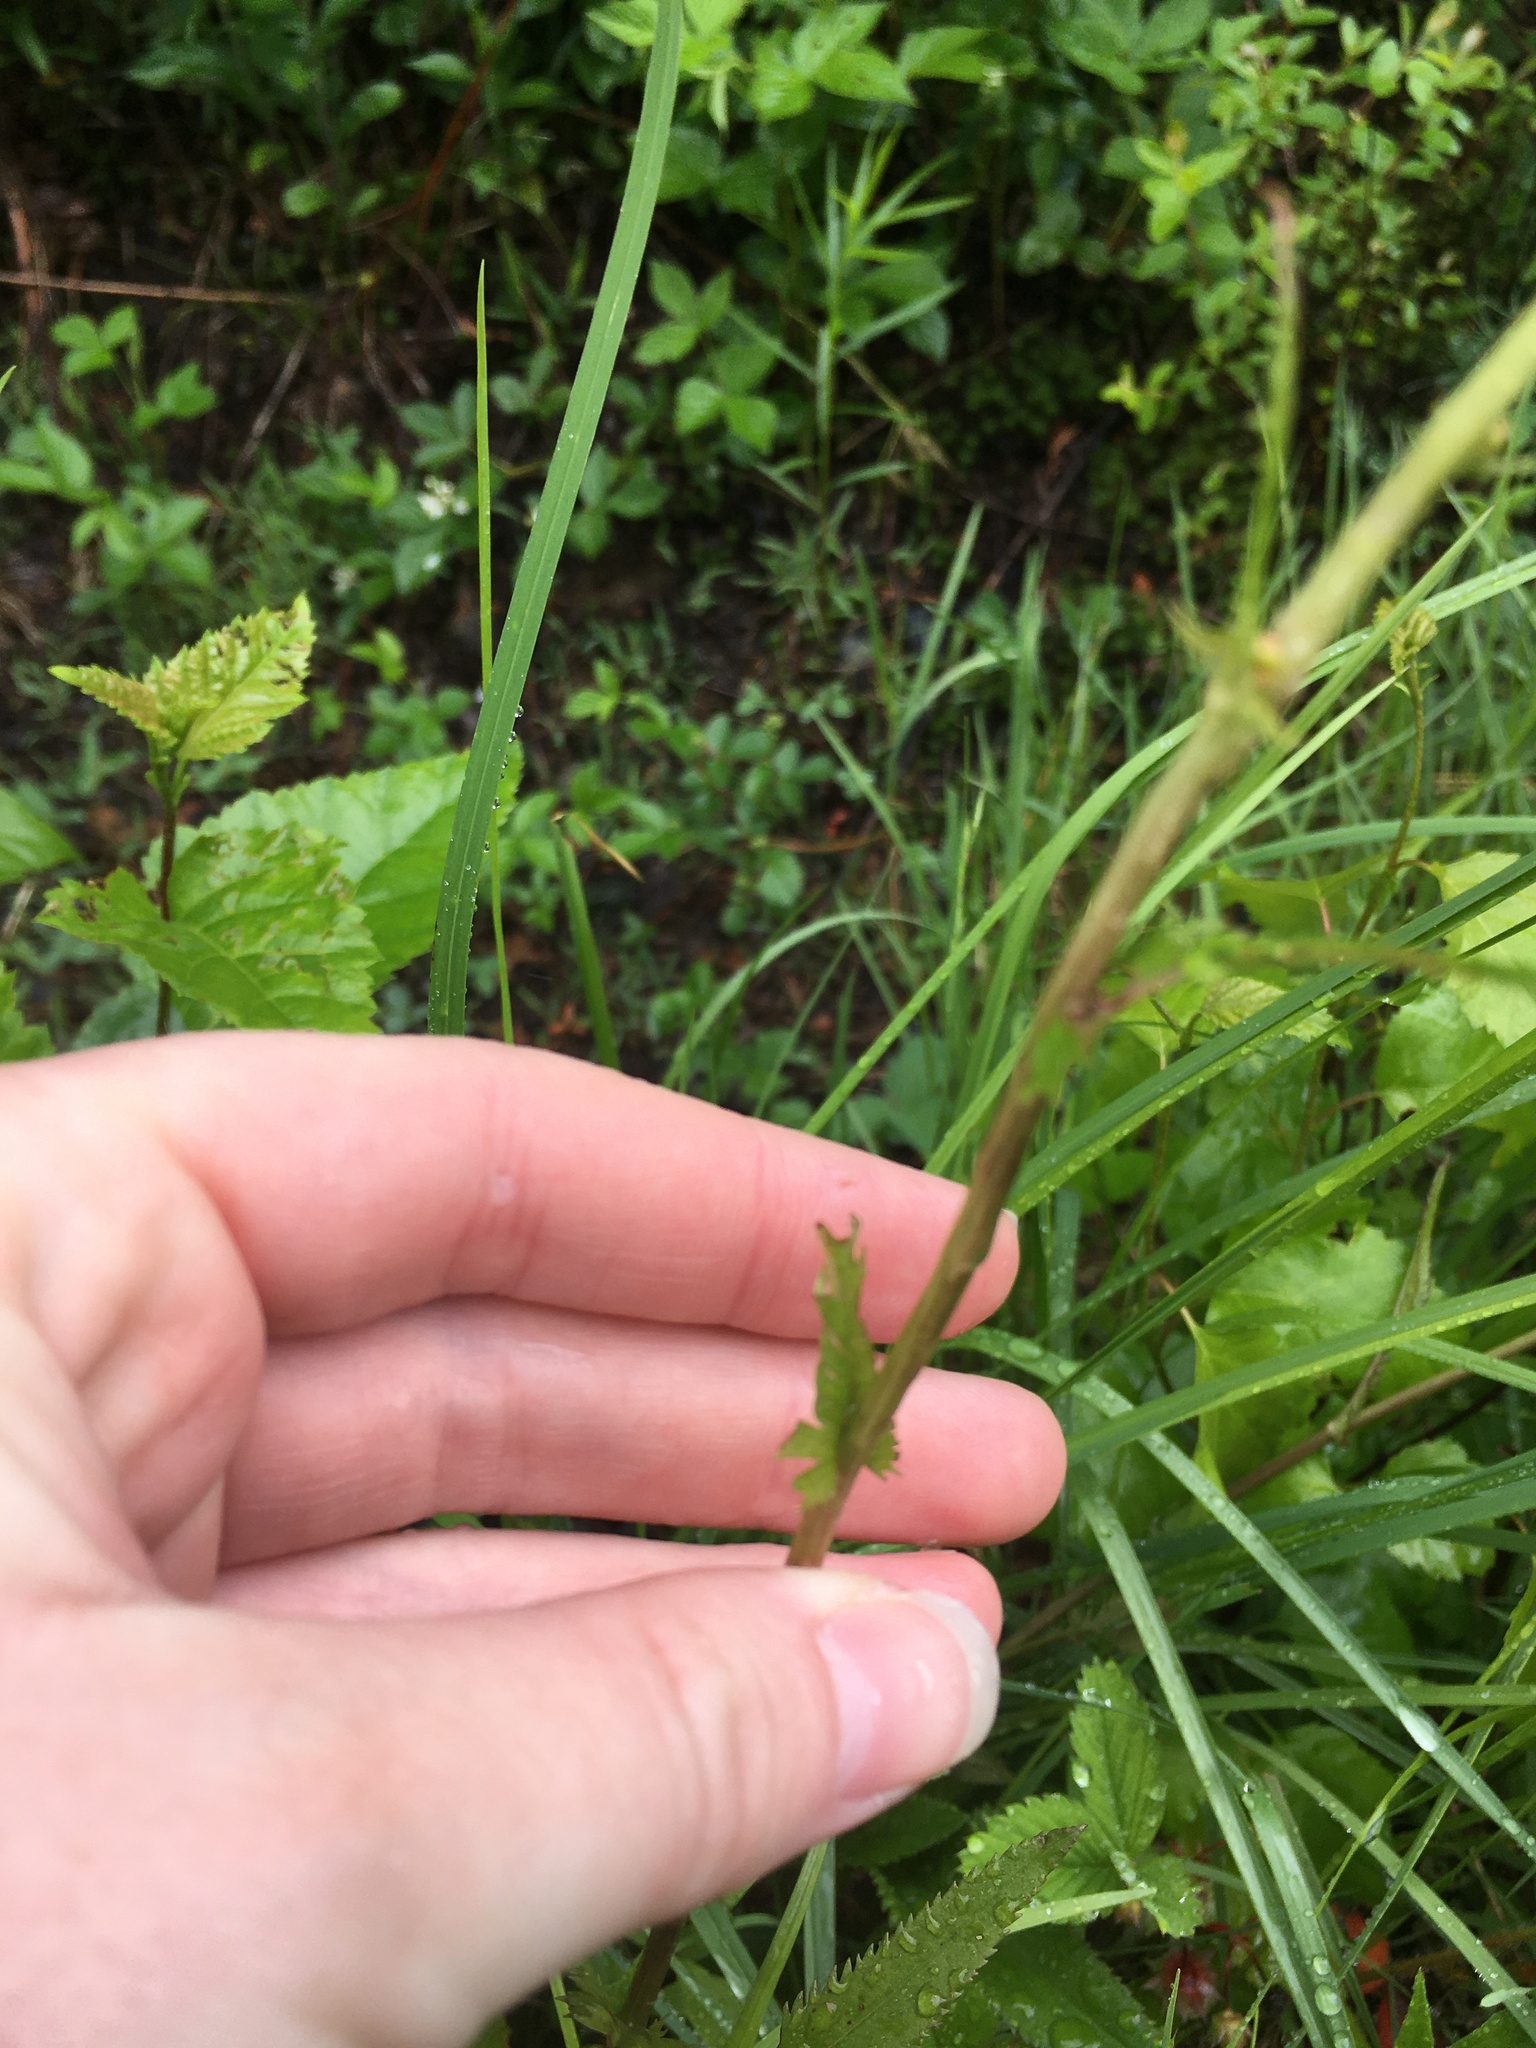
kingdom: Plantae
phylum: Tracheophyta
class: Magnoliopsida
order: Asterales
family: Asteraceae
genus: Packera
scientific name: Packera schweinitziana
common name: Schweinitz's ragwort
